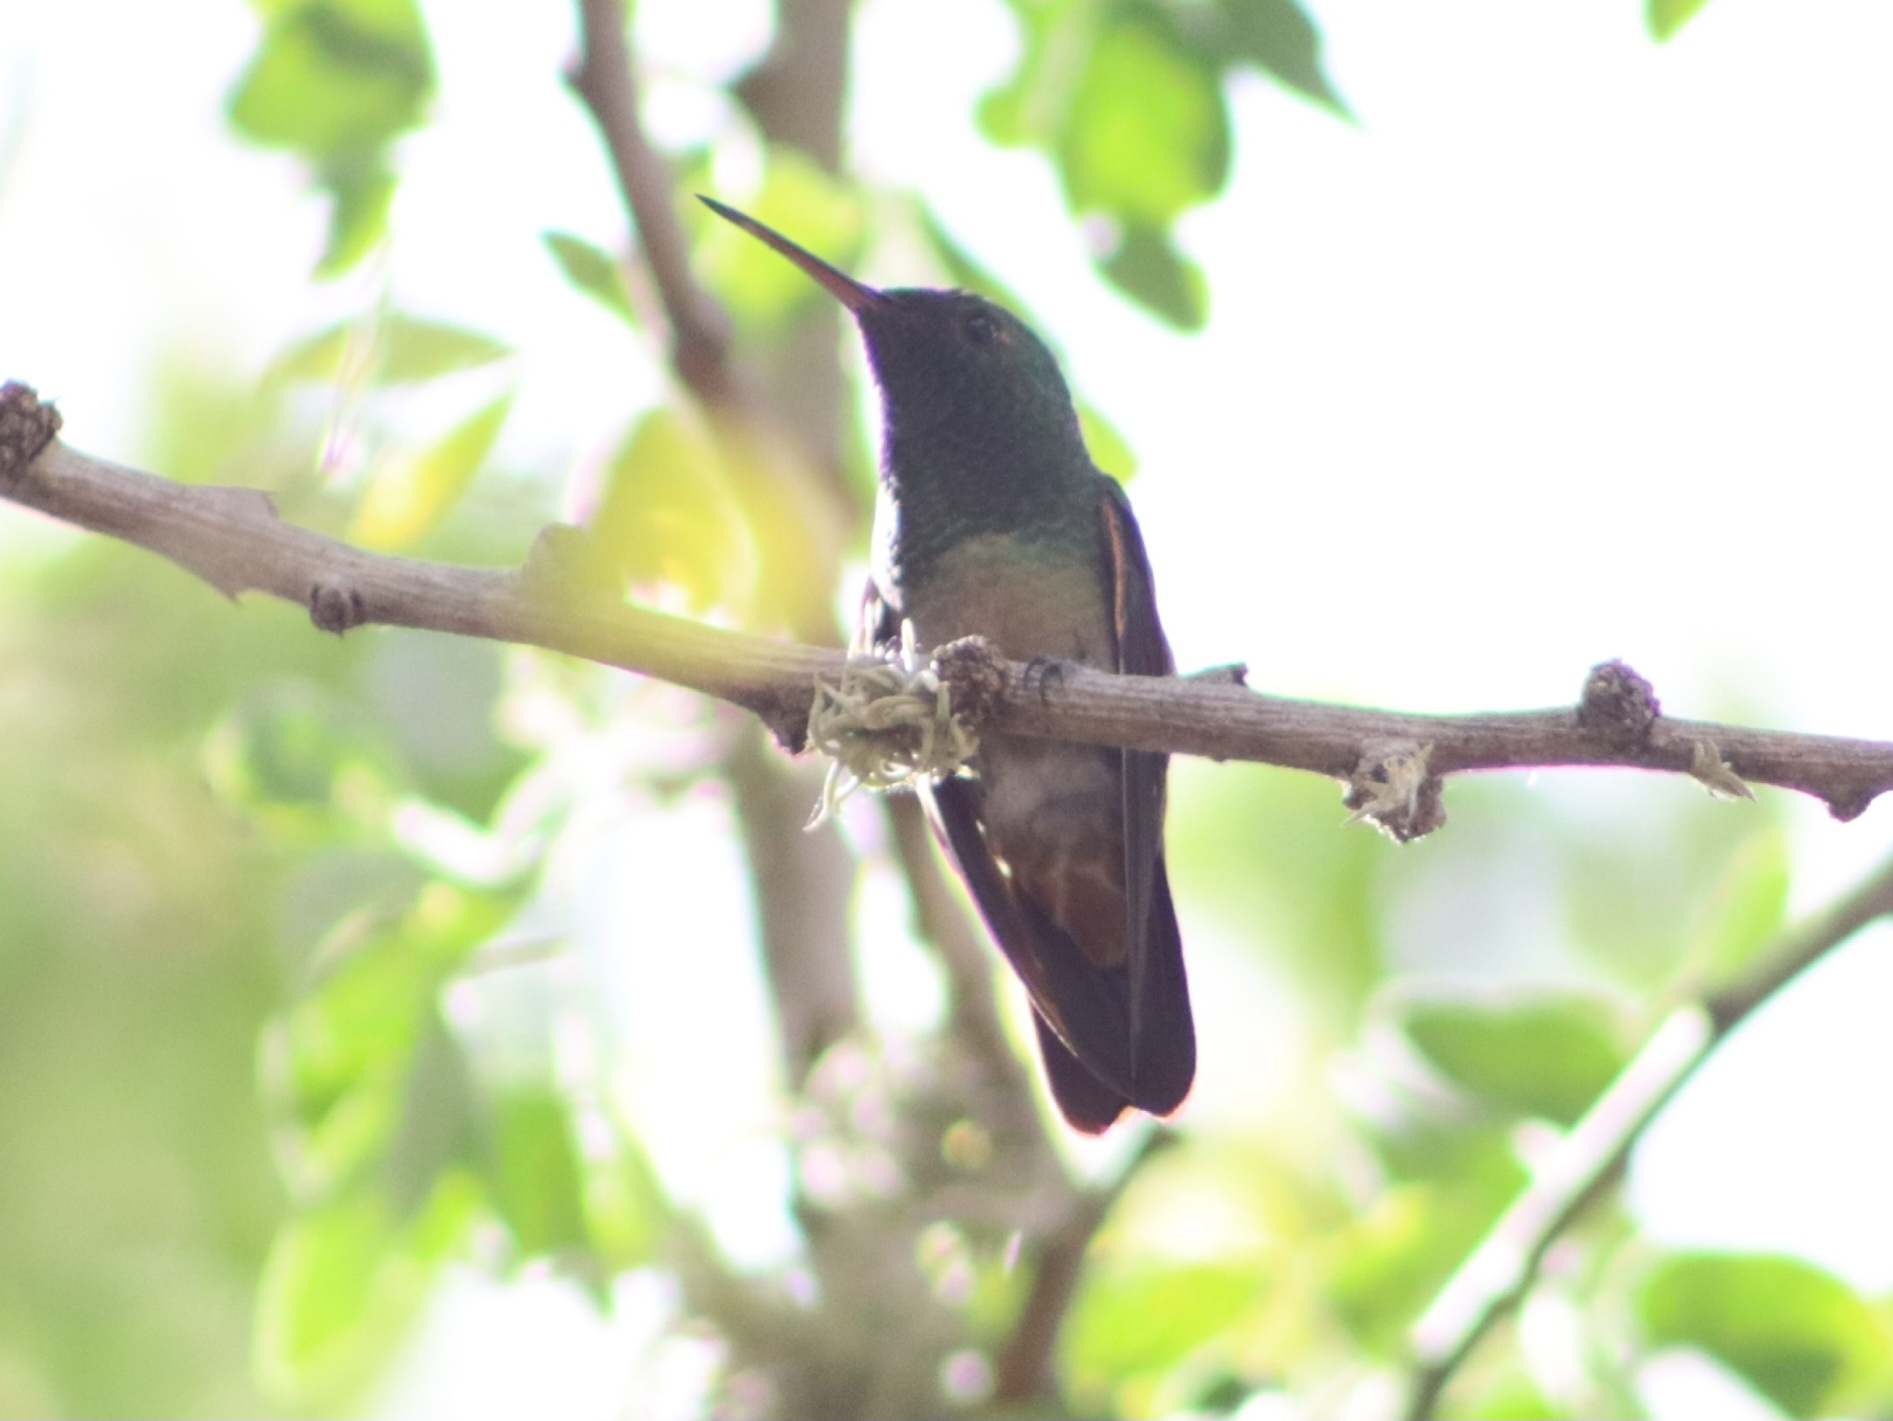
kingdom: Animalia
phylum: Chordata
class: Aves
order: Apodiformes
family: Trochilidae
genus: Saucerottia
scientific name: Saucerottia beryllina
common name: Berylline hummingbird
